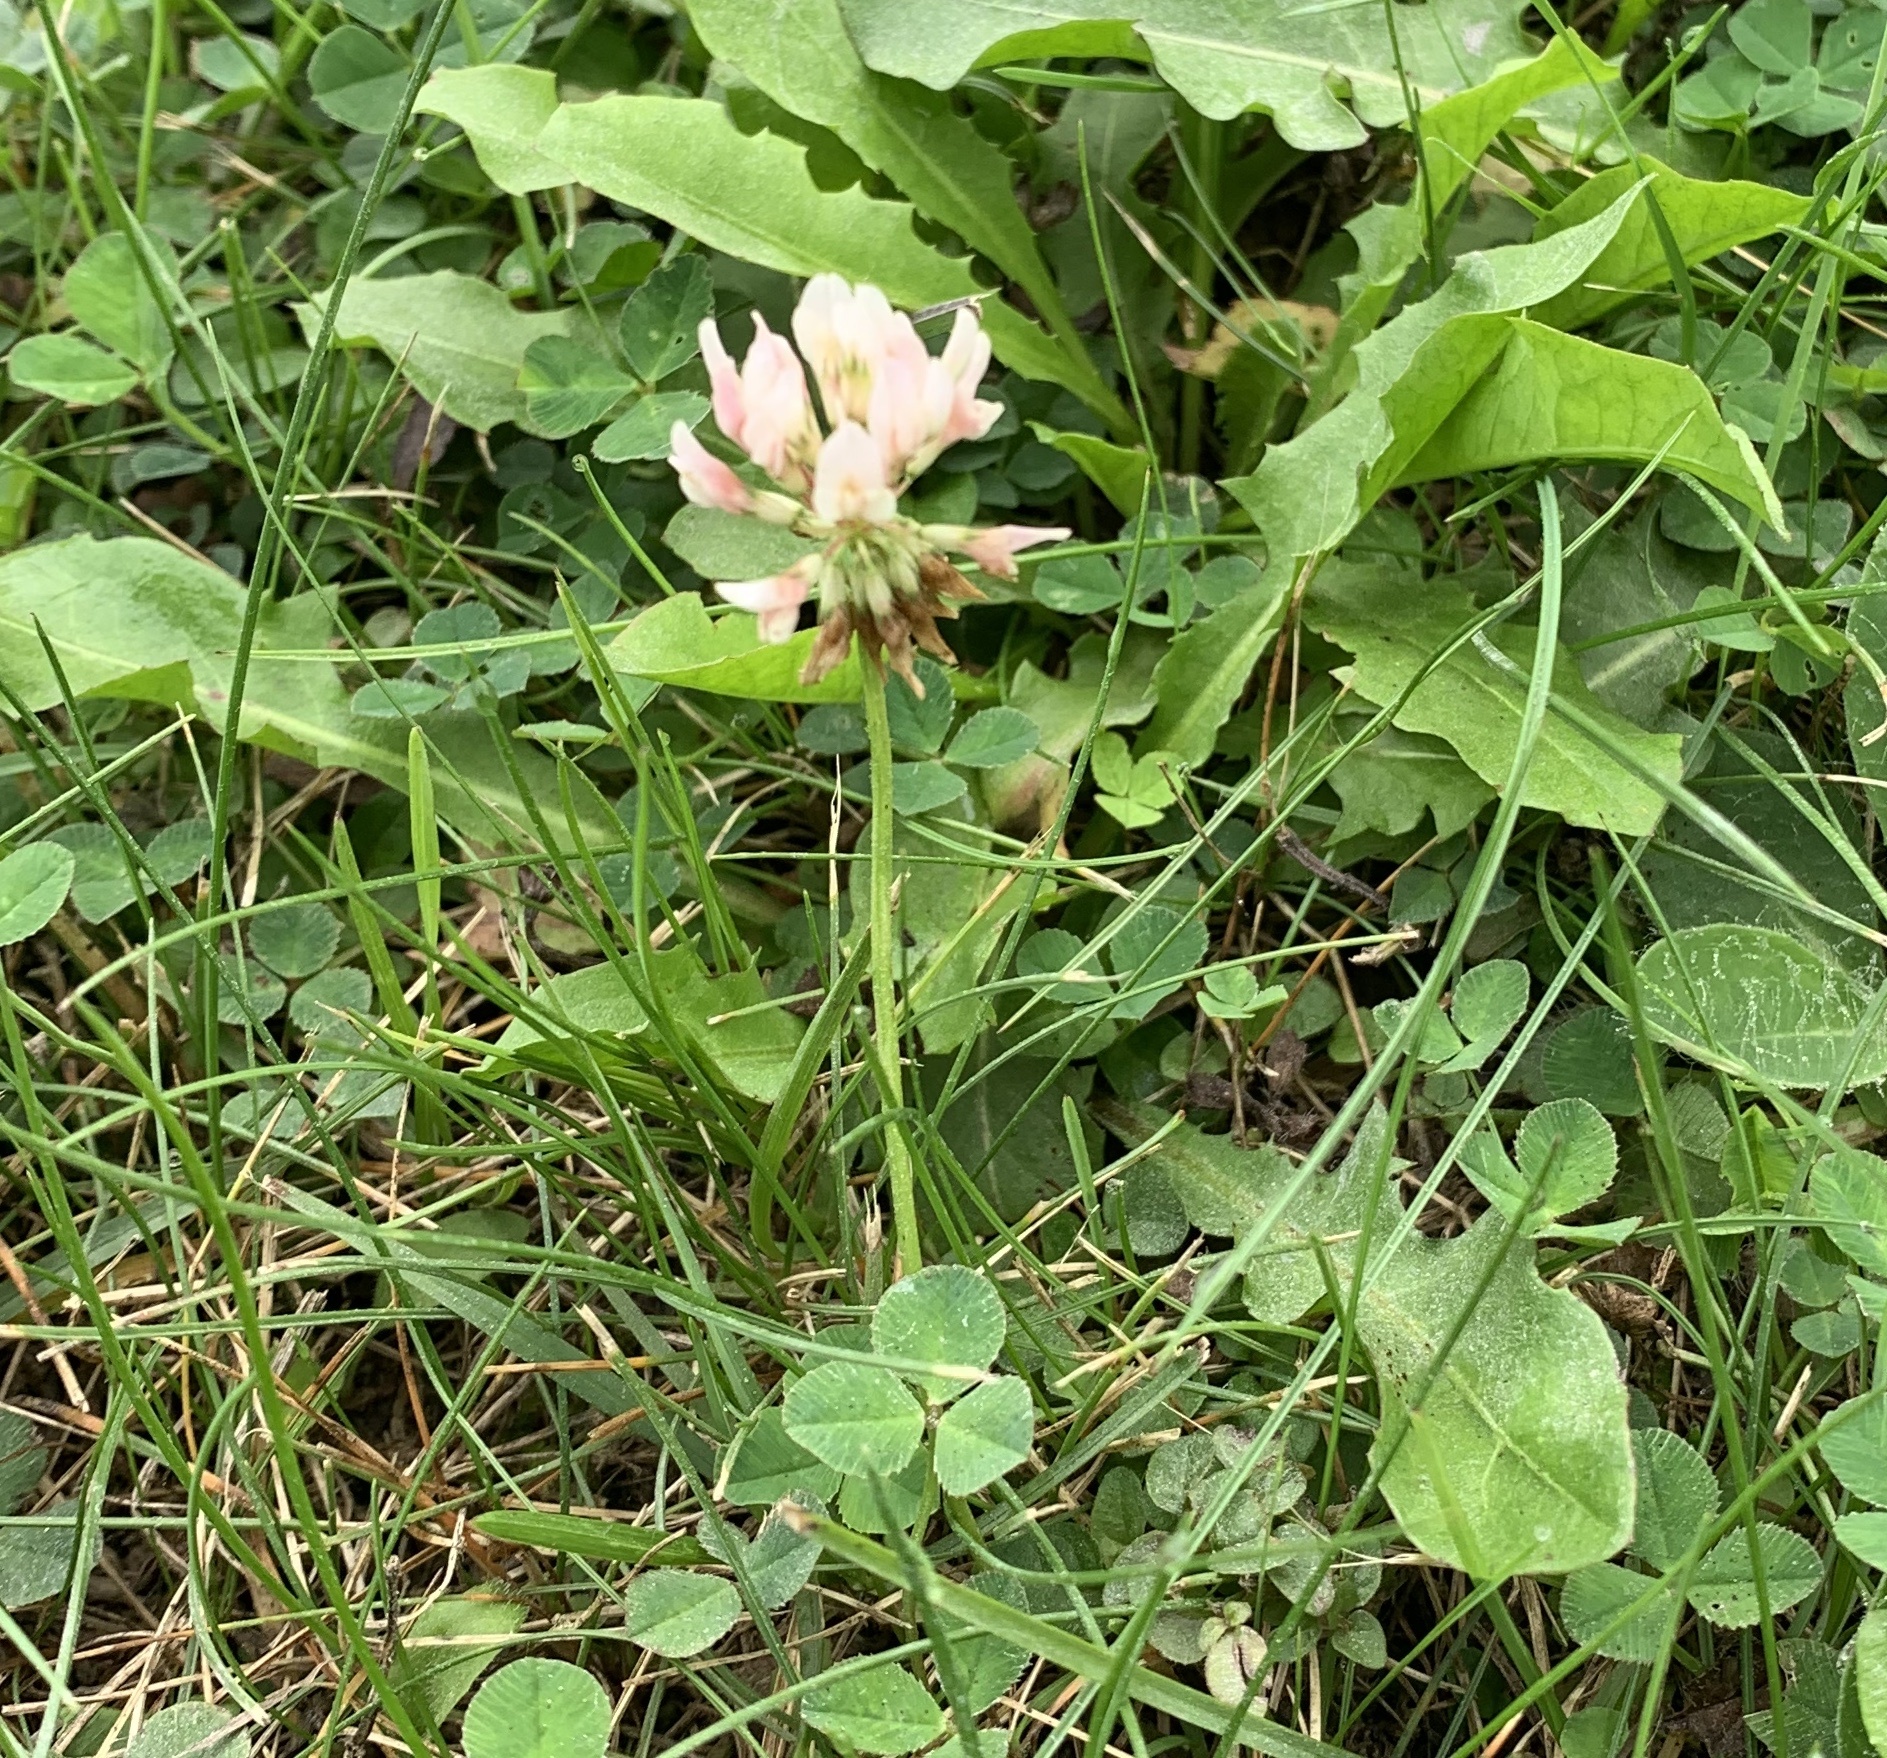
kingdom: Plantae
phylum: Tracheophyta
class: Magnoliopsida
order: Fabales
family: Fabaceae
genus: Trifolium
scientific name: Trifolium repens
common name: White clover
